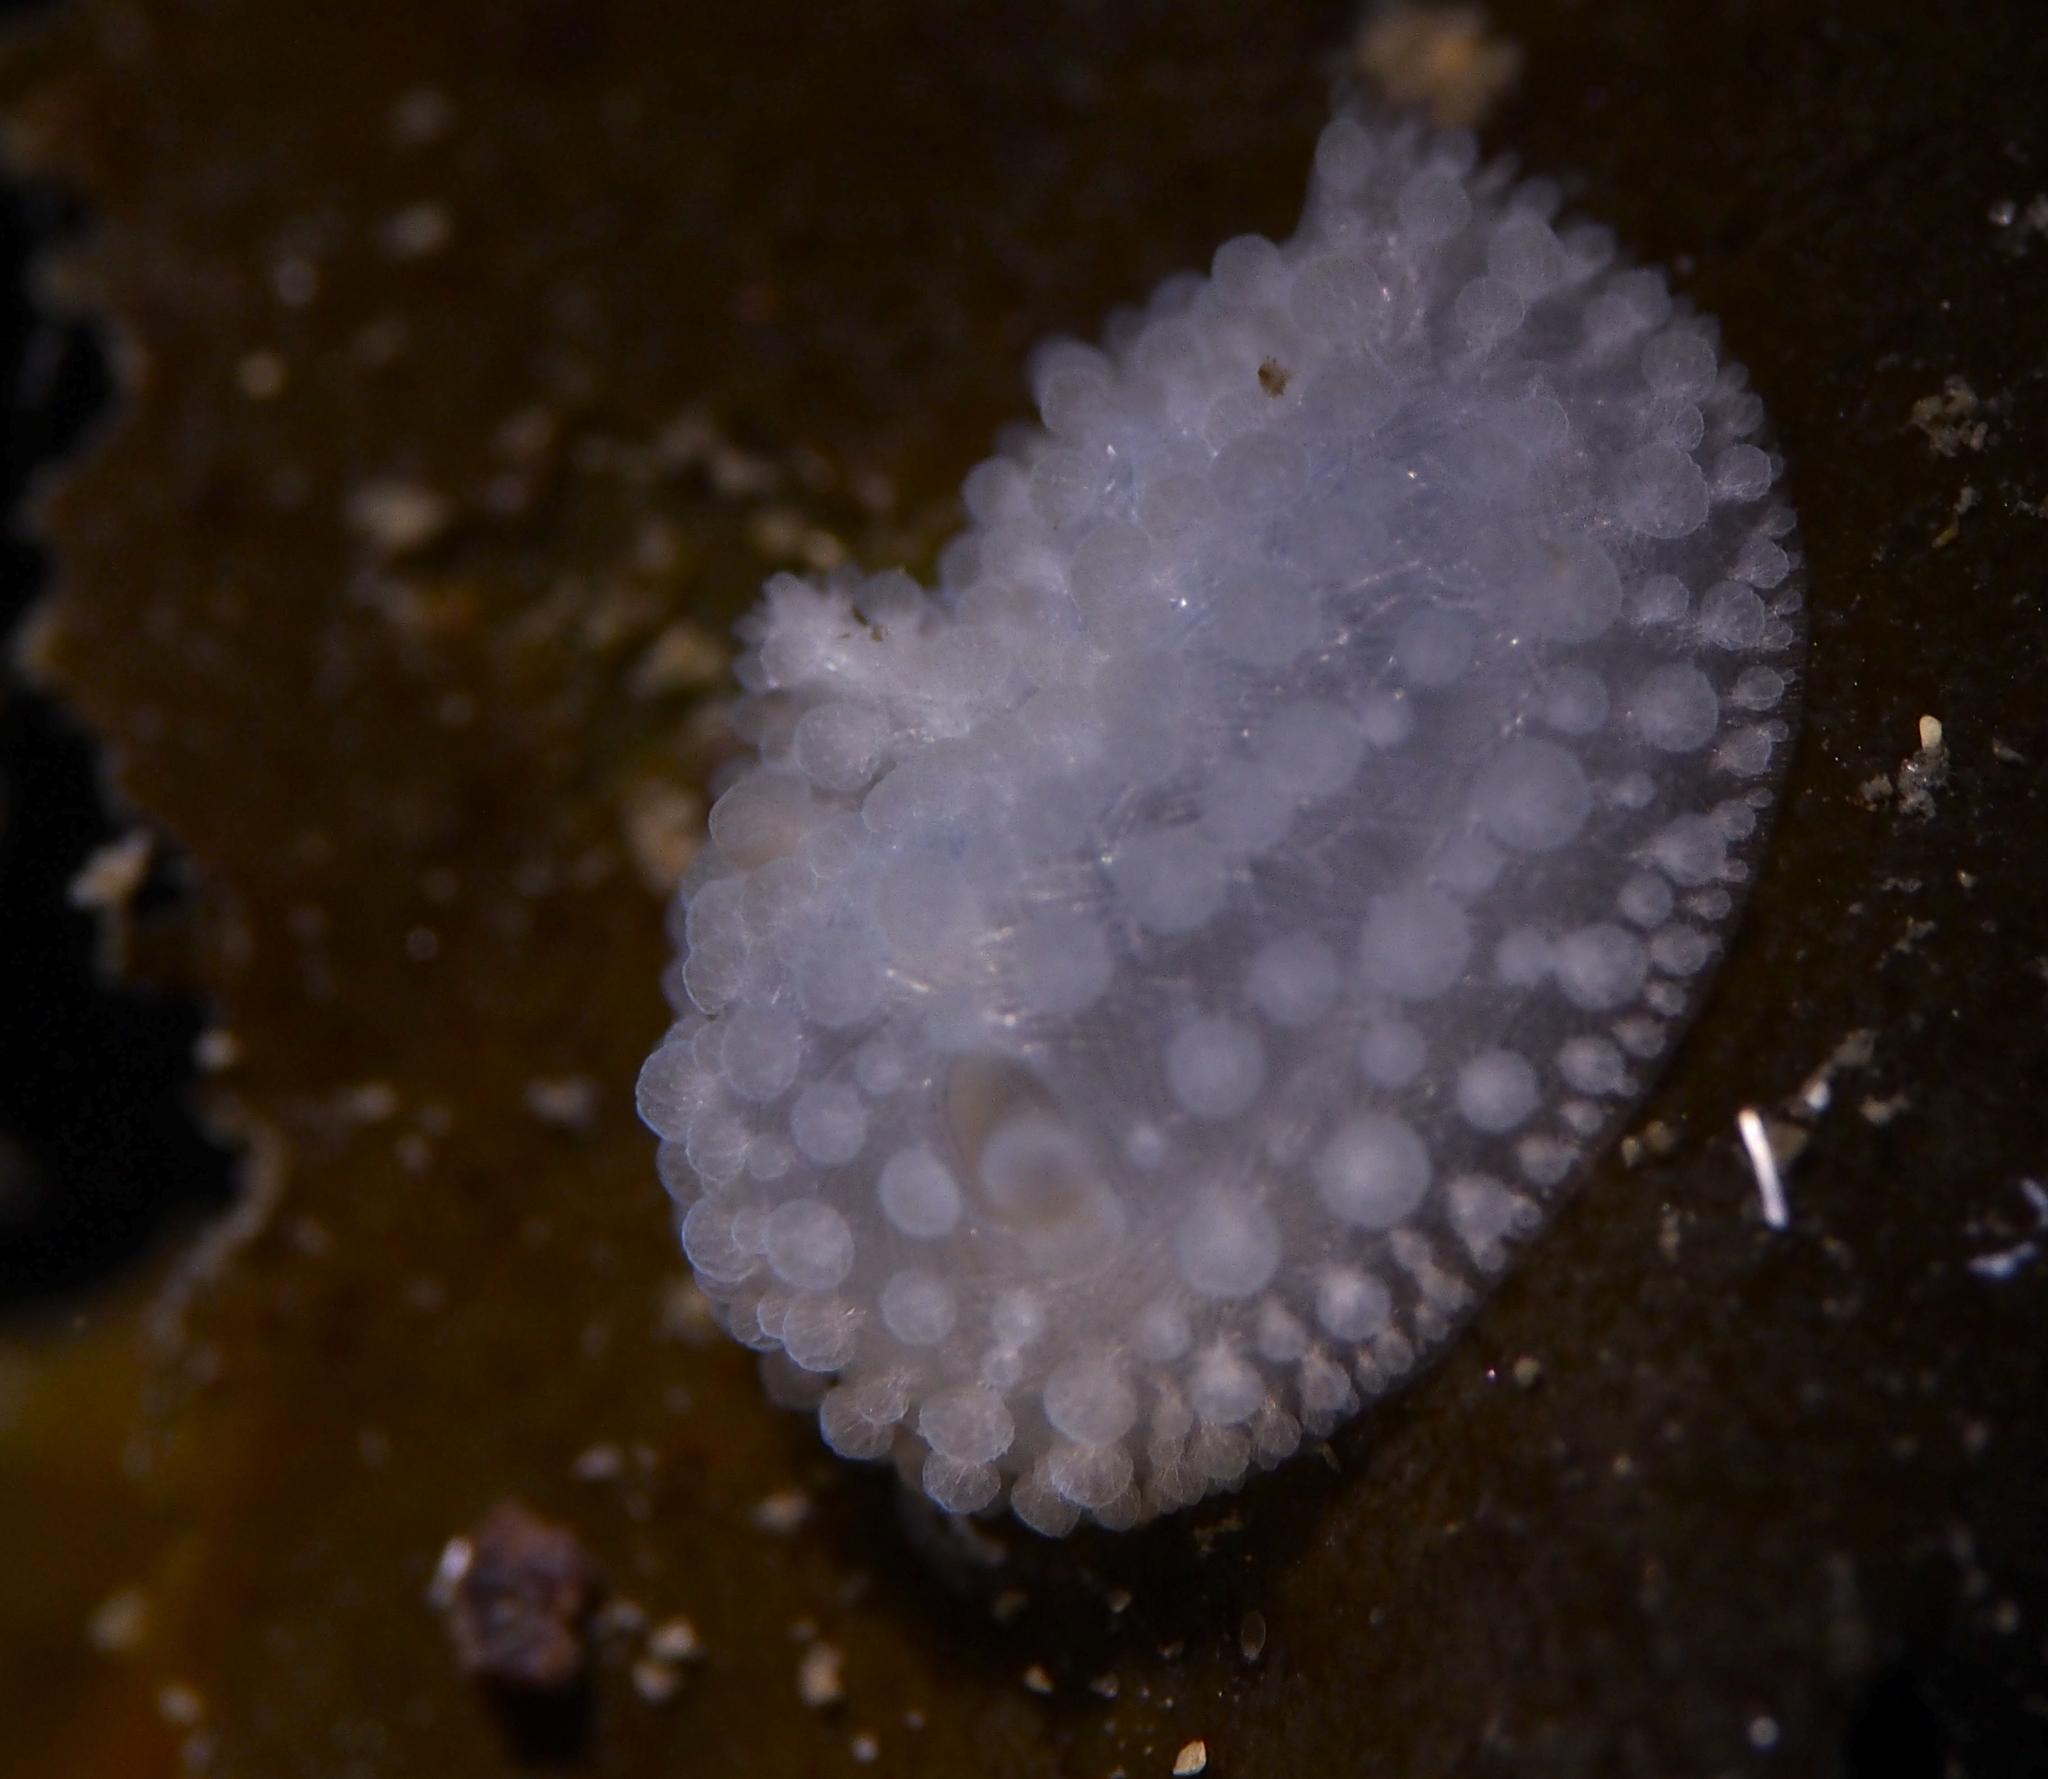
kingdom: Animalia
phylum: Mollusca
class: Gastropoda
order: Nudibranchia
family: Onchidorididae
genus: Onchidoris
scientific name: Onchidoris muricata
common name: Rough doris
